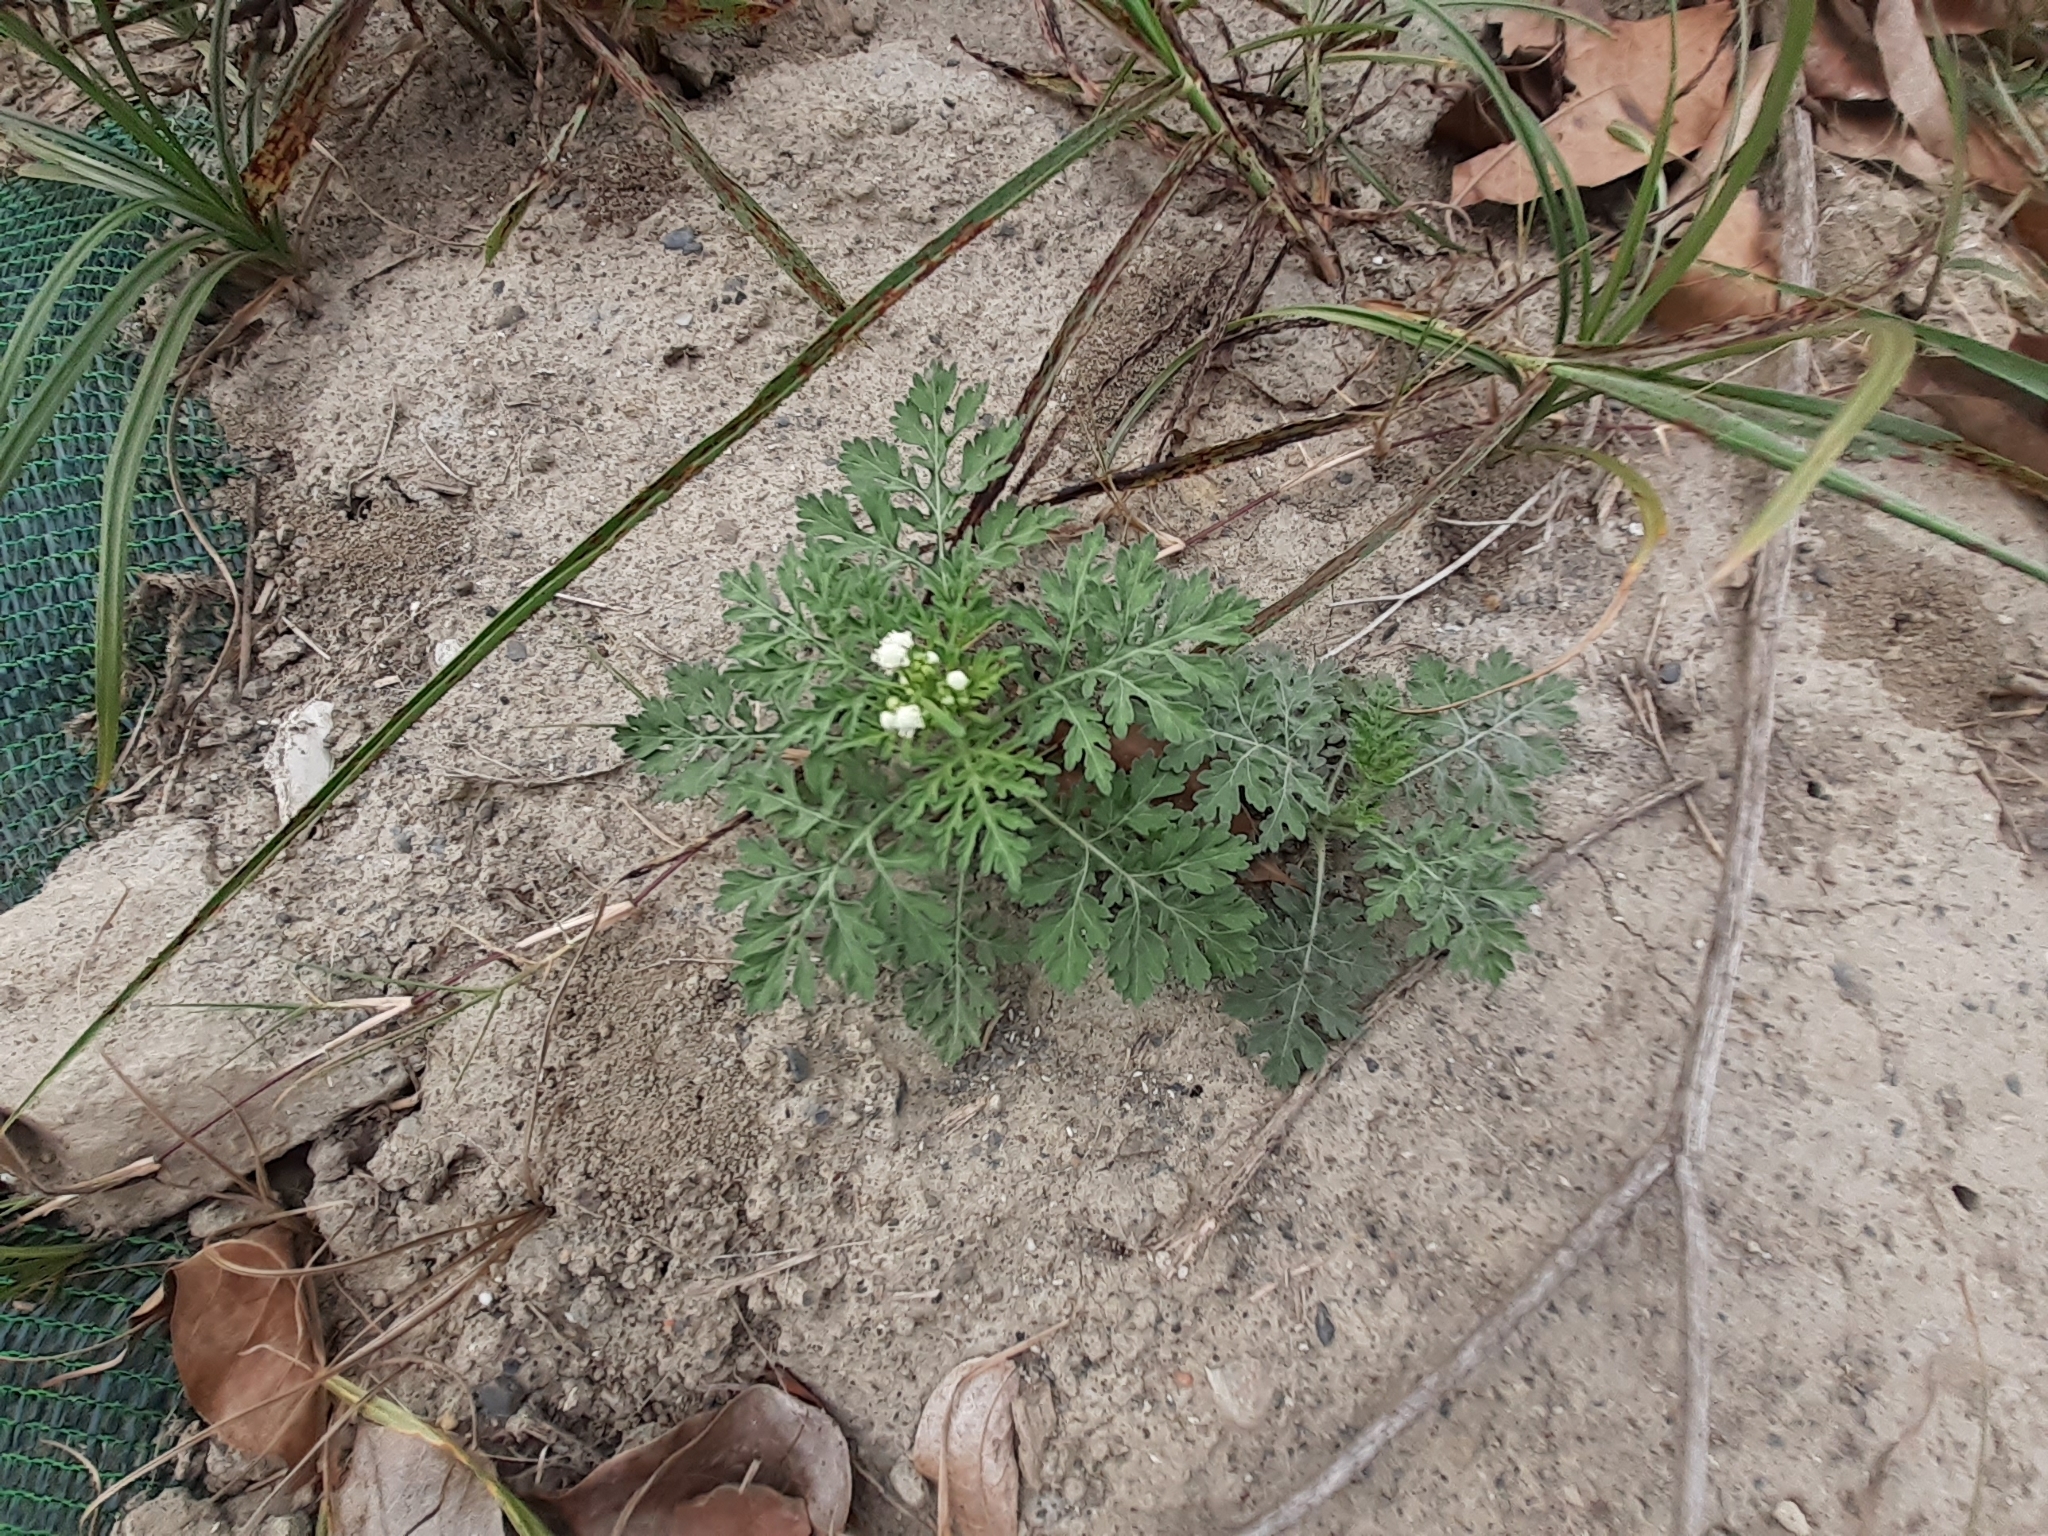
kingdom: Plantae
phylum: Tracheophyta
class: Magnoliopsida
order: Asterales
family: Asteraceae
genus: Parthenium
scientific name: Parthenium hysterophorus
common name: Santa maria feverfew
